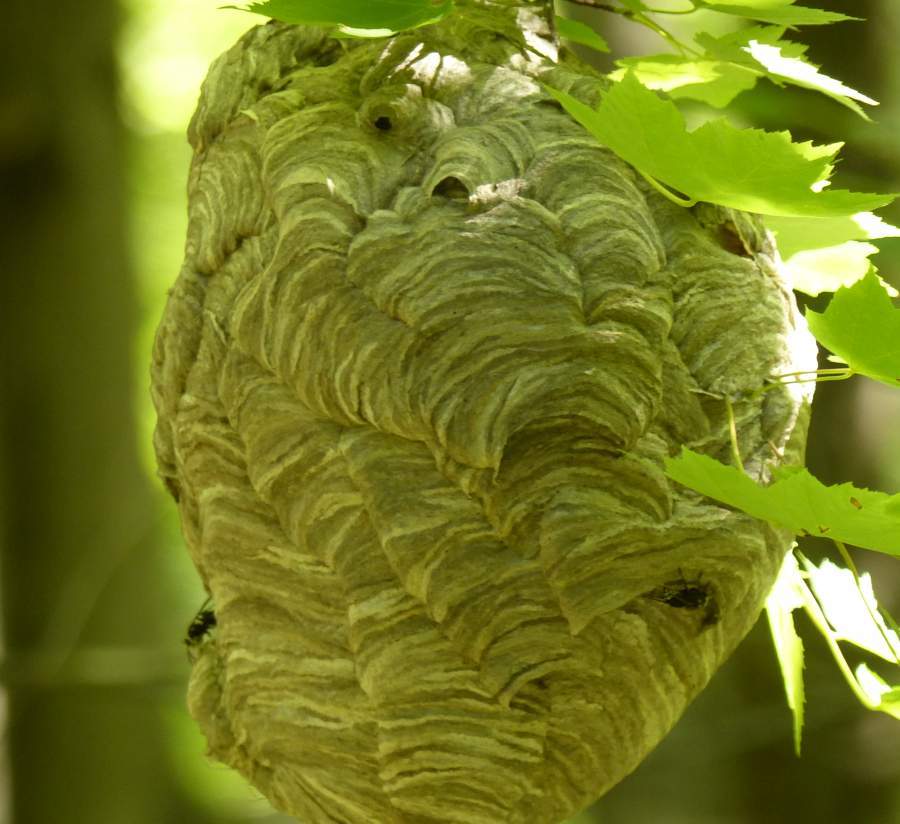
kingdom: Animalia
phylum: Arthropoda
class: Insecta
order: Hymenoptera
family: Vespidae
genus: Dolichovespula
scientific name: Dolichovespula maculata
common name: Bald-faced hornet
